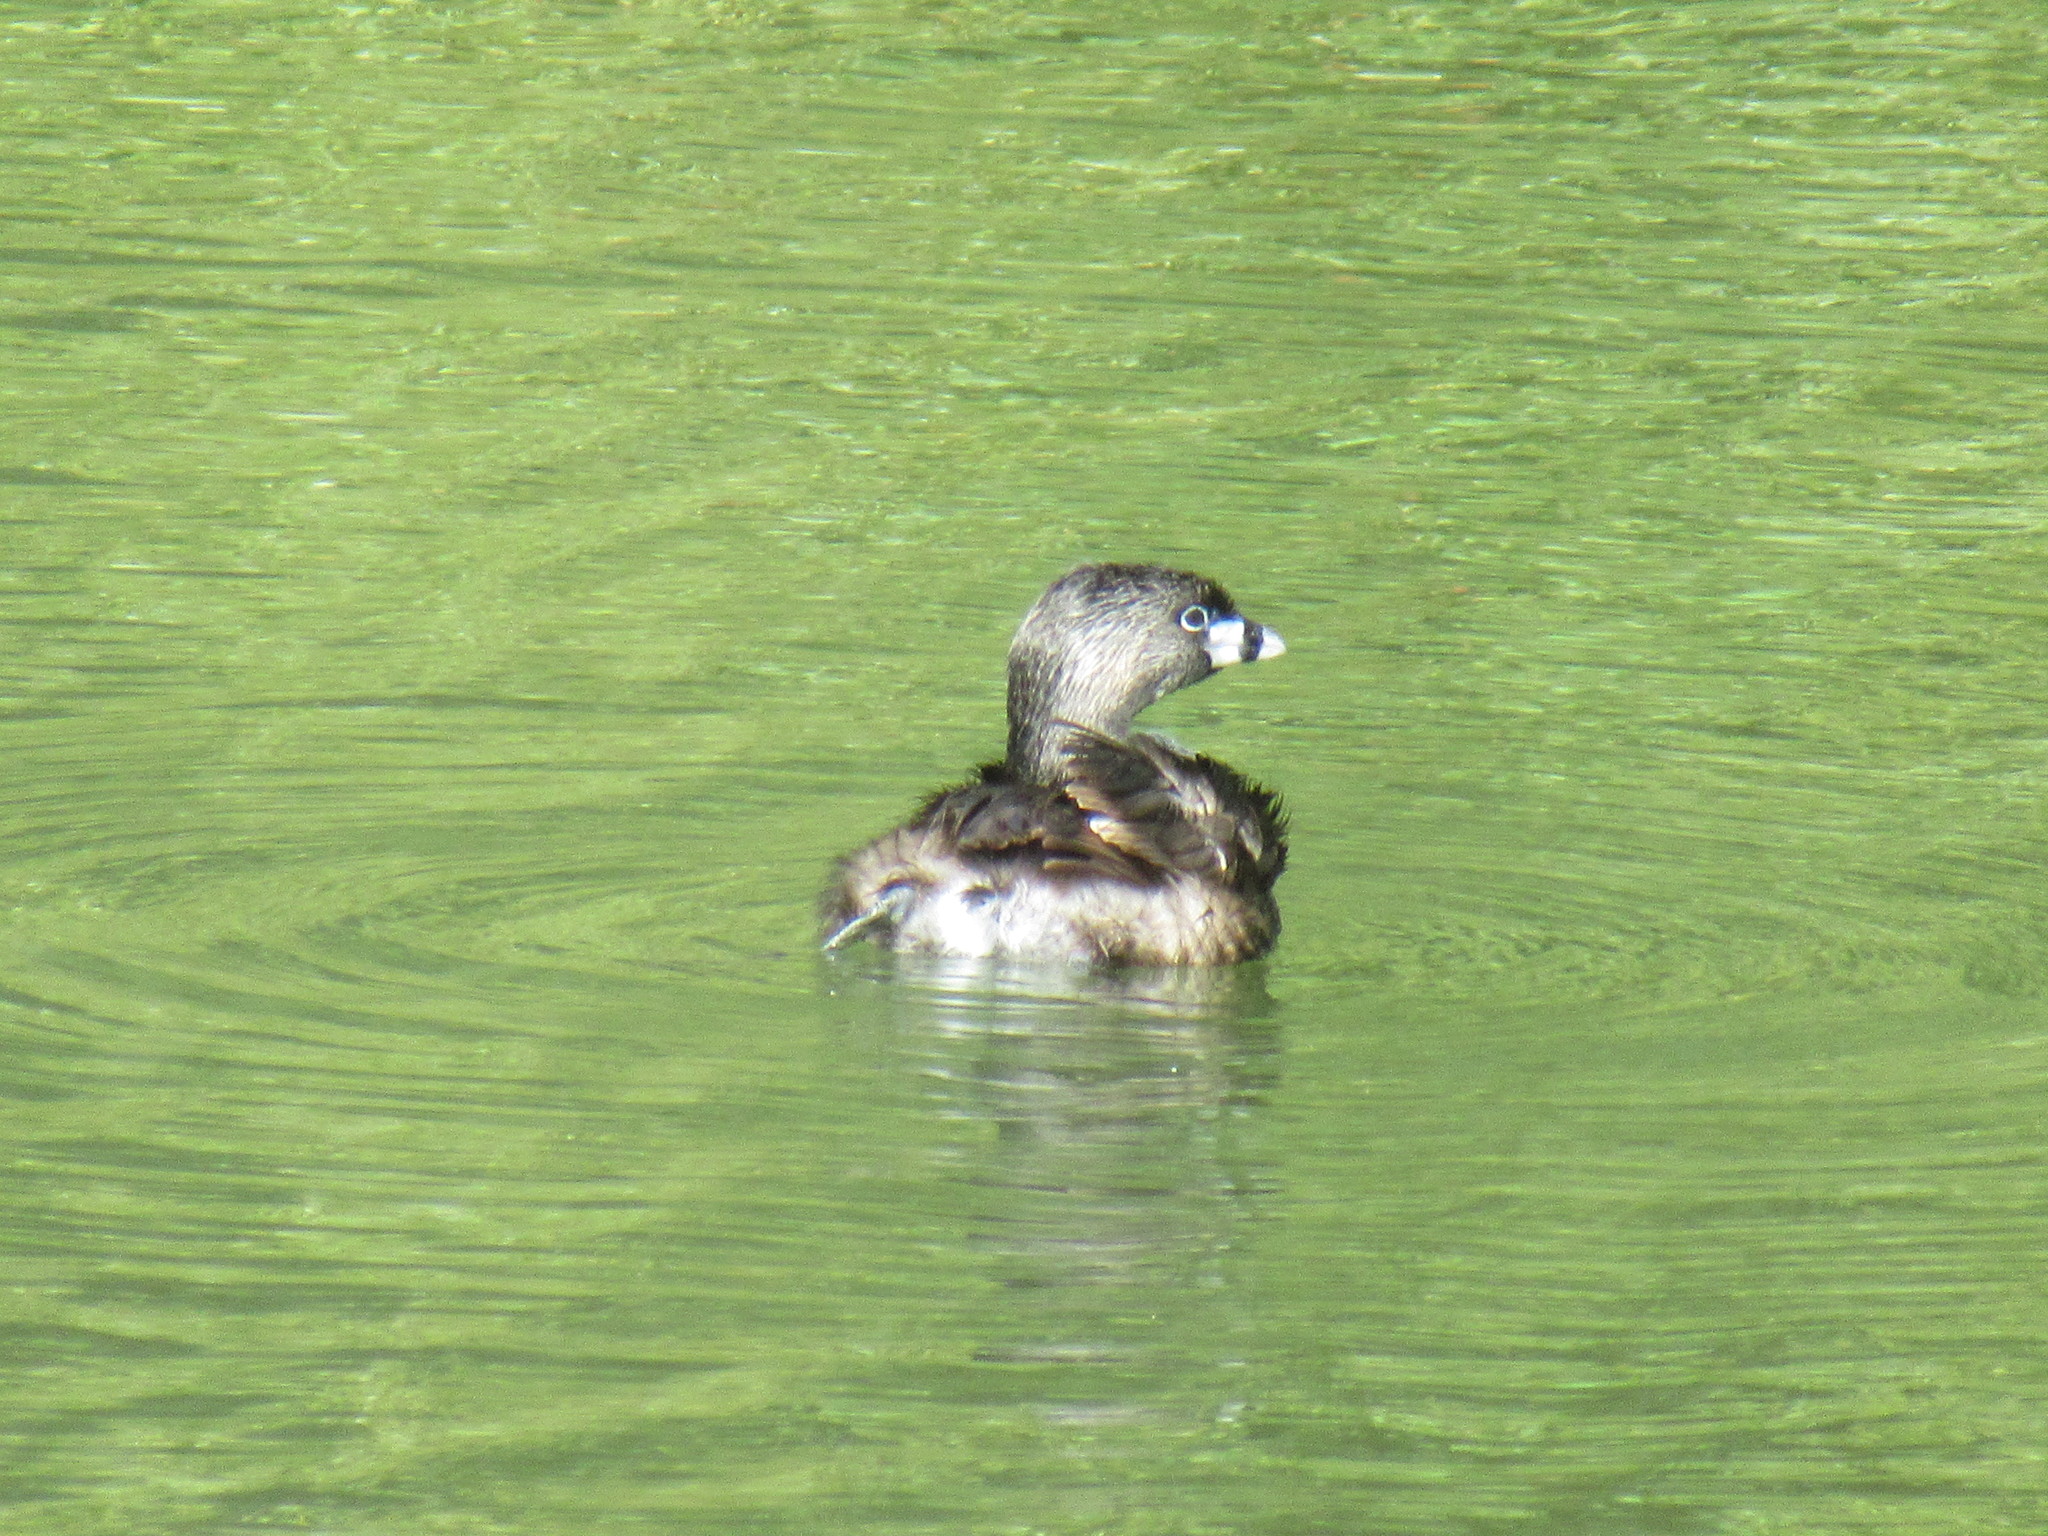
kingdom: Animalia
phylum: Chordata
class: Aves
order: Podicipediformes
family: Podicipedidae
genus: Podilymbus
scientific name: Podilymbus podiceps
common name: Pied-billed grebe
